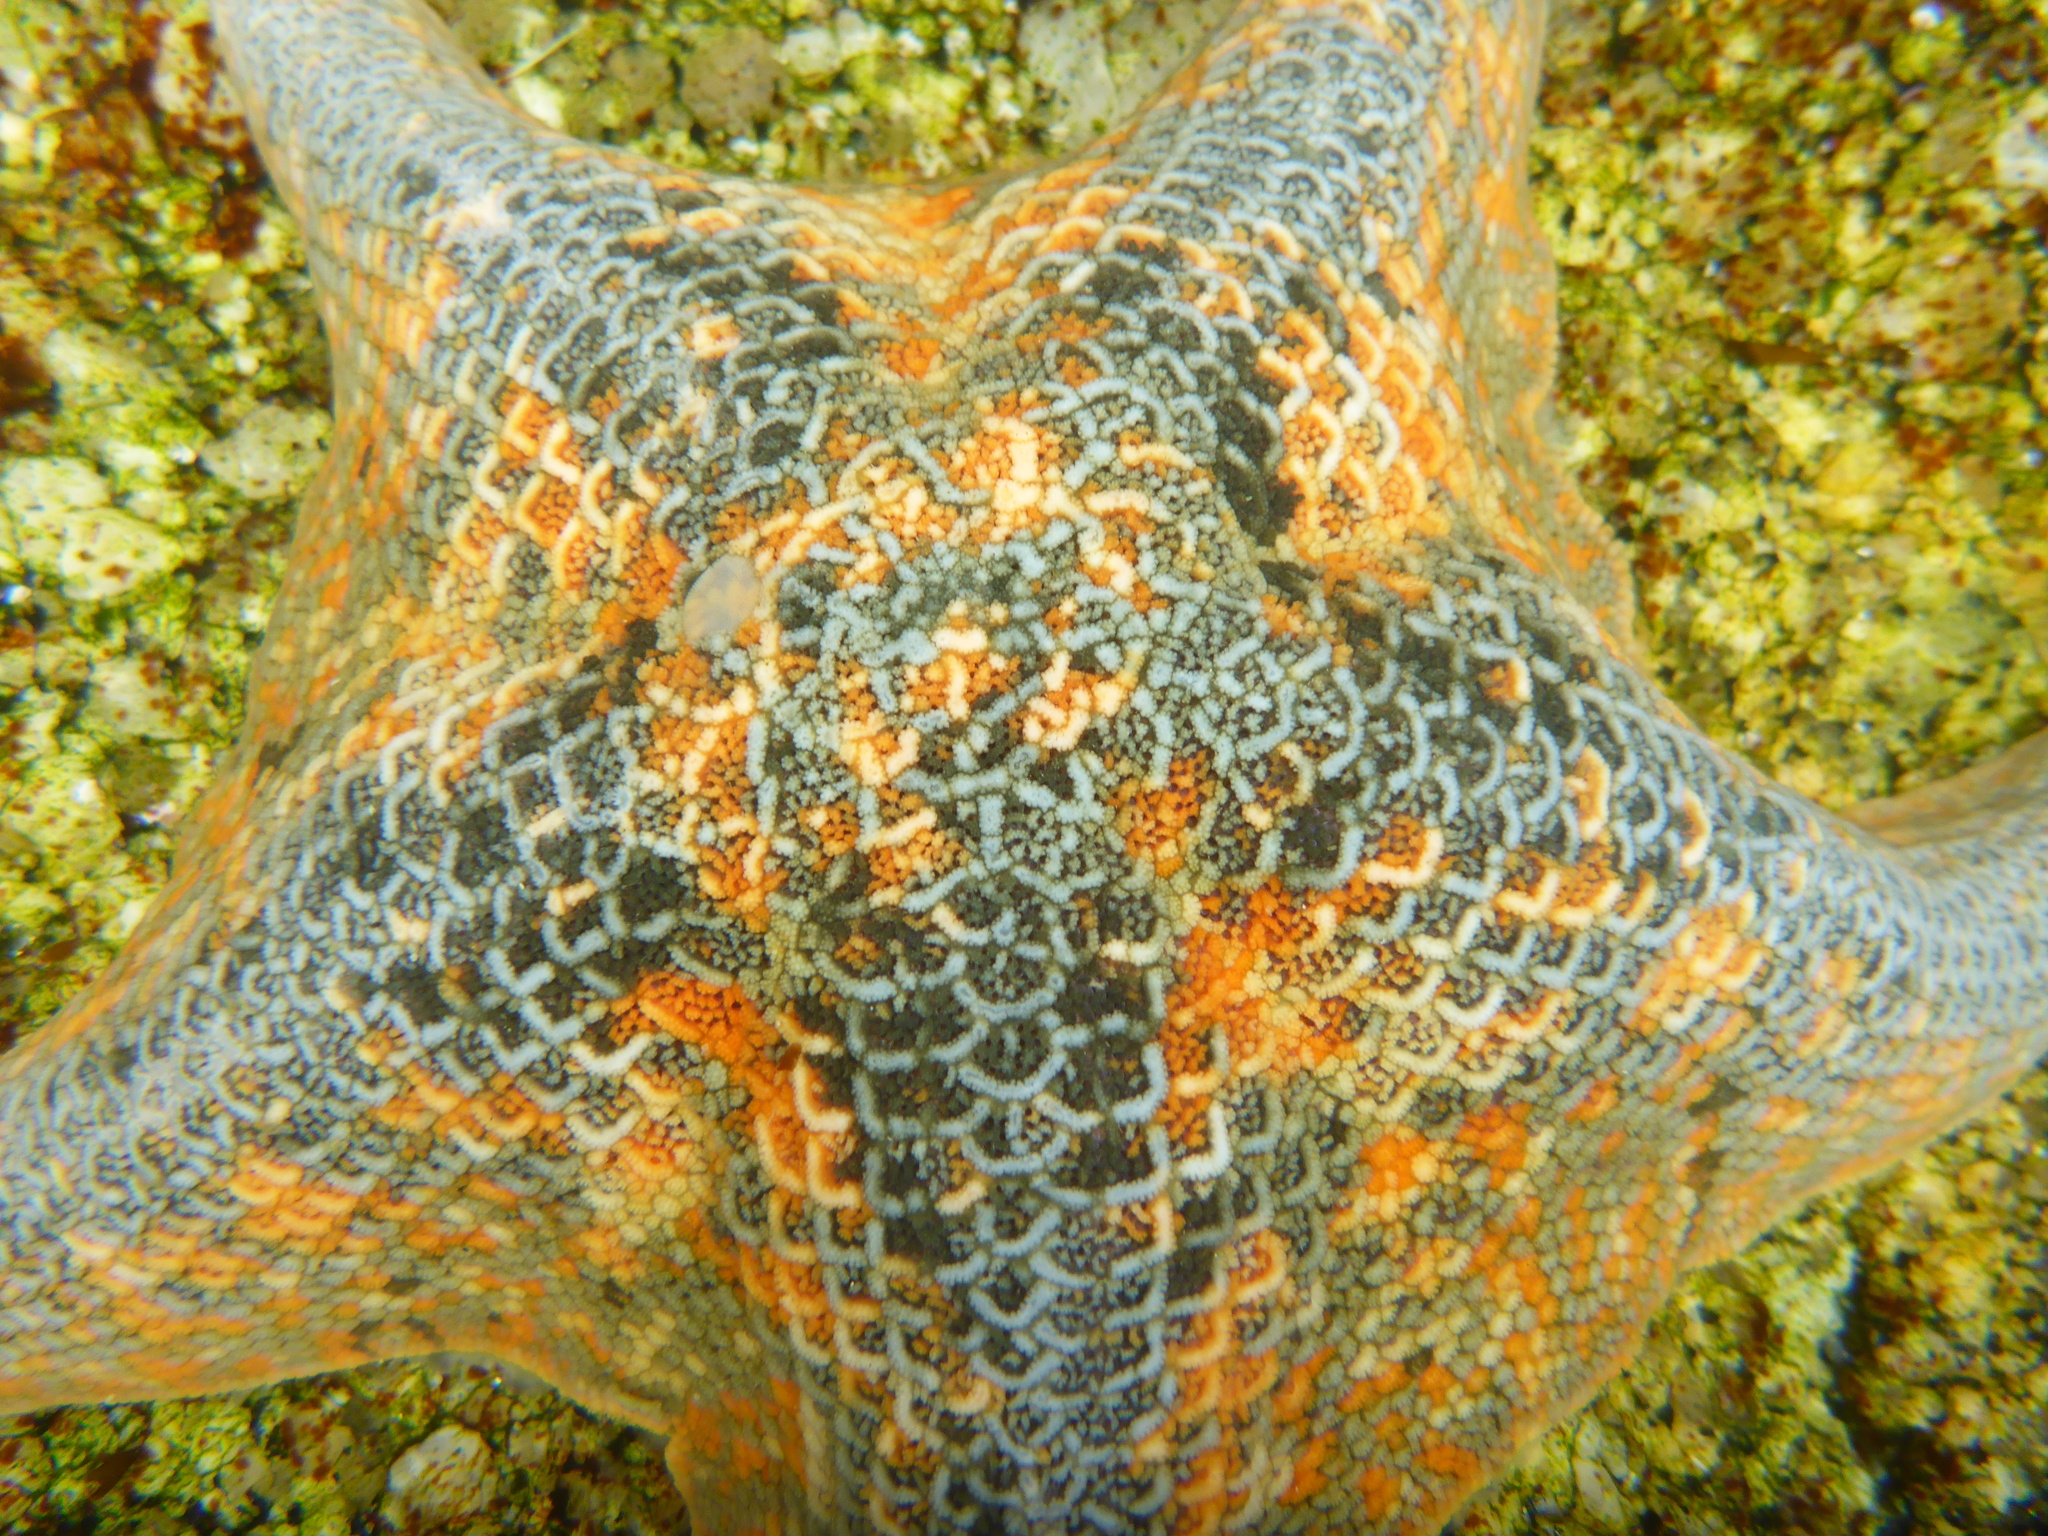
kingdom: Animalia
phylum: Echinodermata
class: Asteroidea
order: Valvatida
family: Asterinidae
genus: Patiria
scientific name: Patiria miniata
